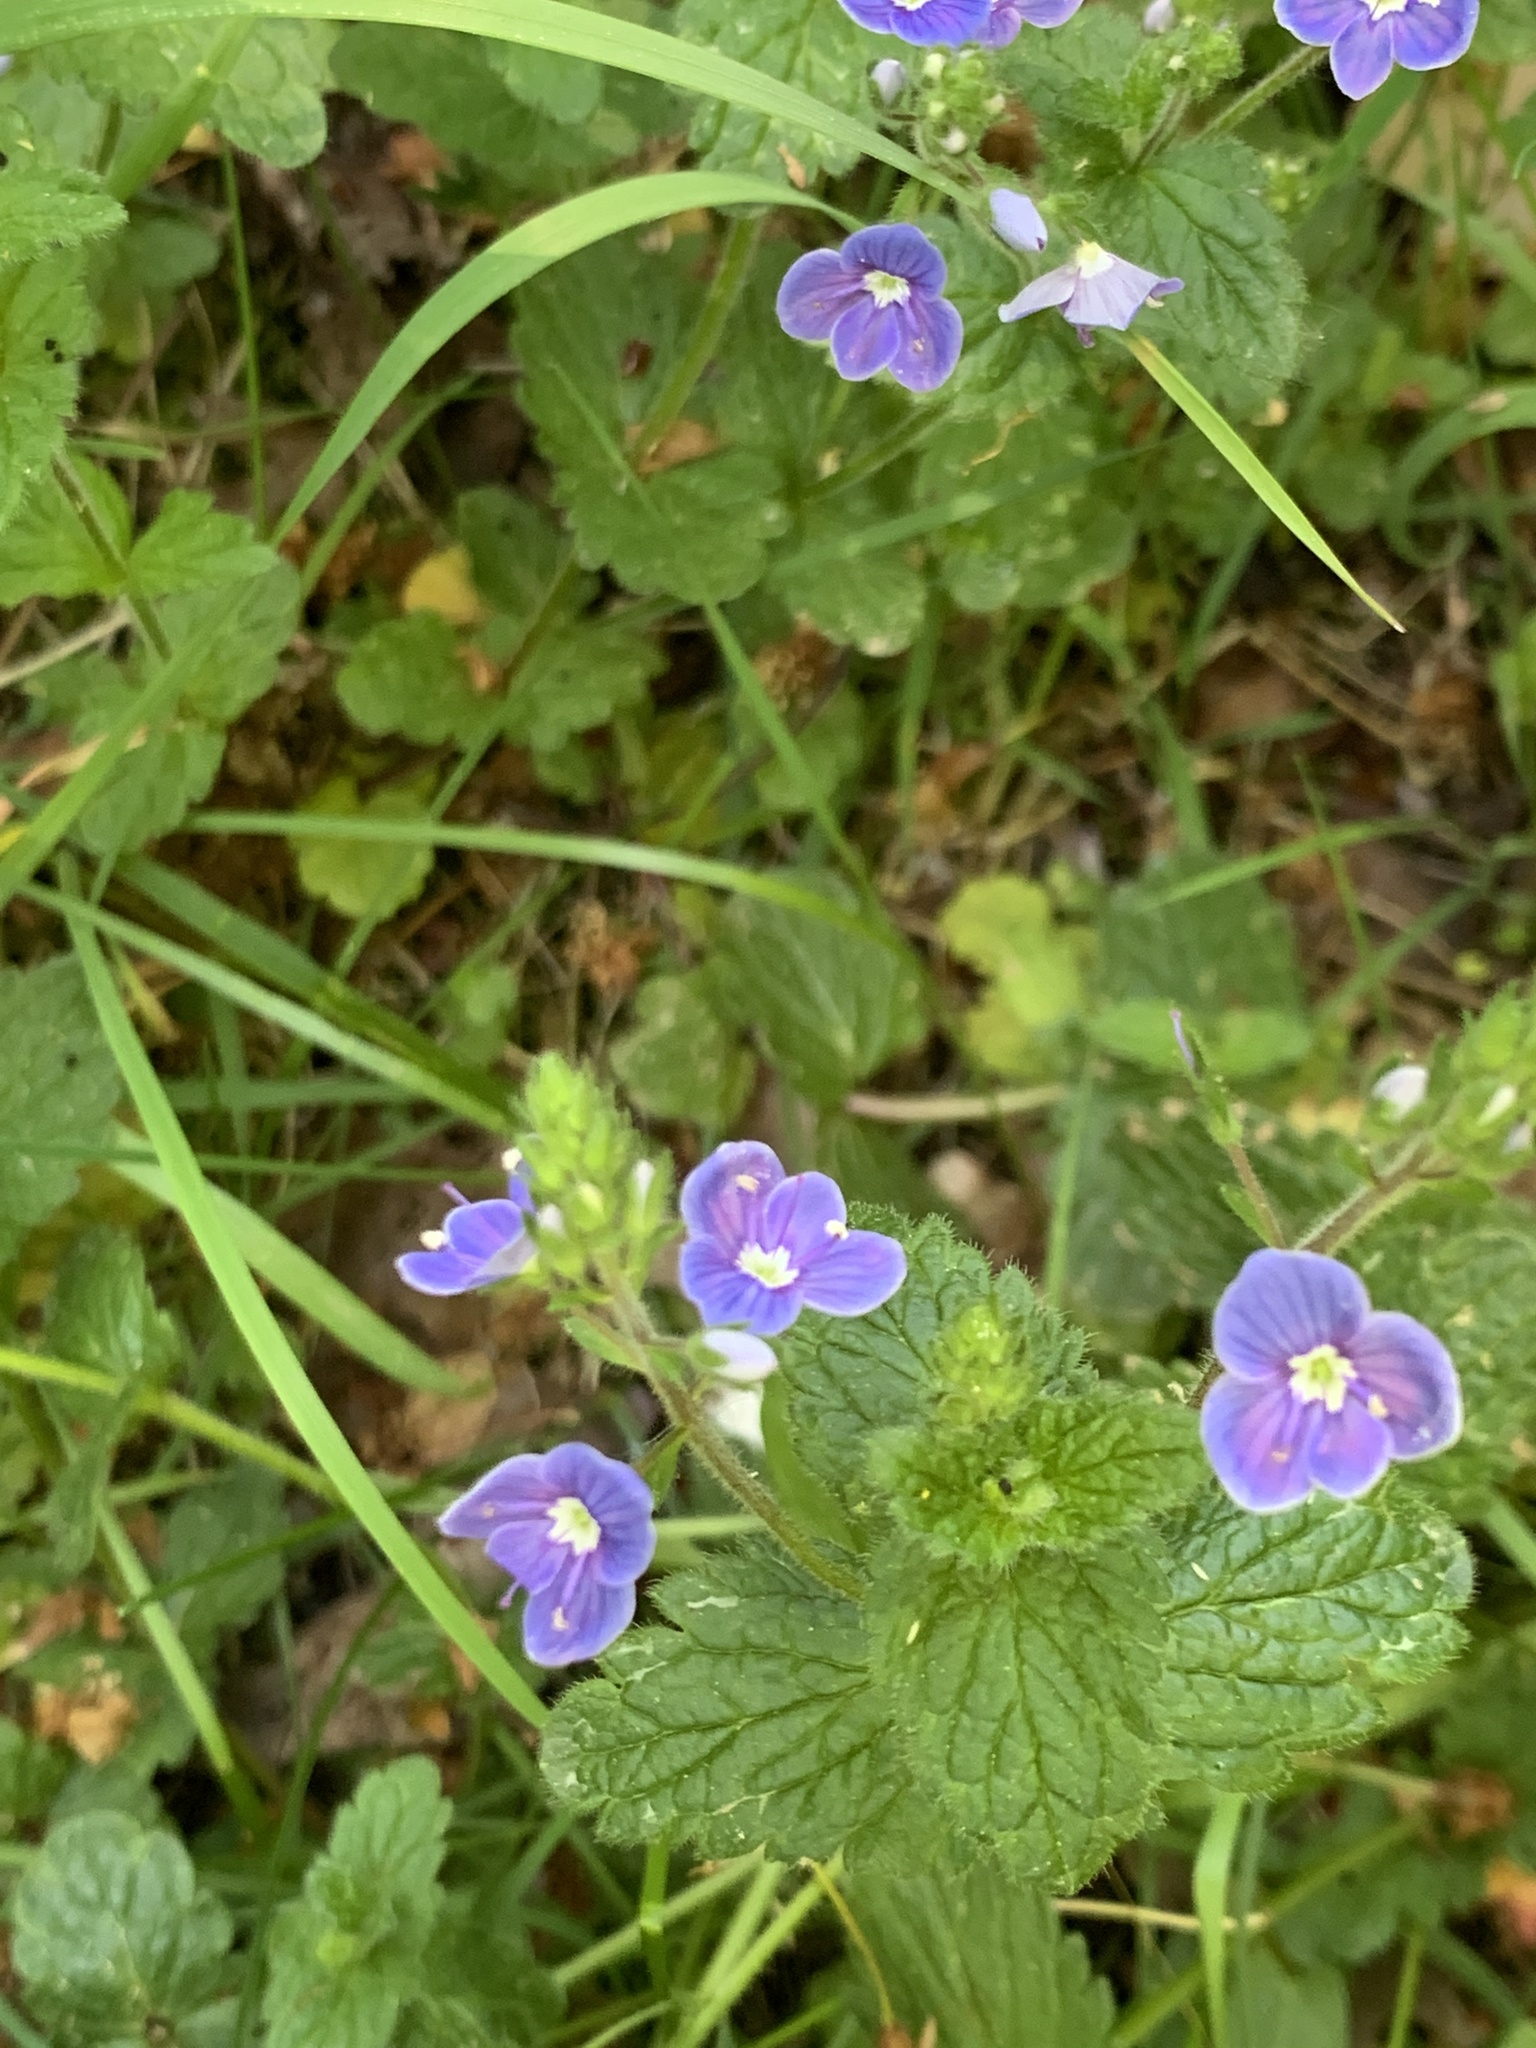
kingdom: Plantae
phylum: Tracheophyta
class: Magnoliopsida
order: Lamiales
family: Plantaginaceae
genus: Veronica
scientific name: Veronica chamaedrys
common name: Germander speedwell
